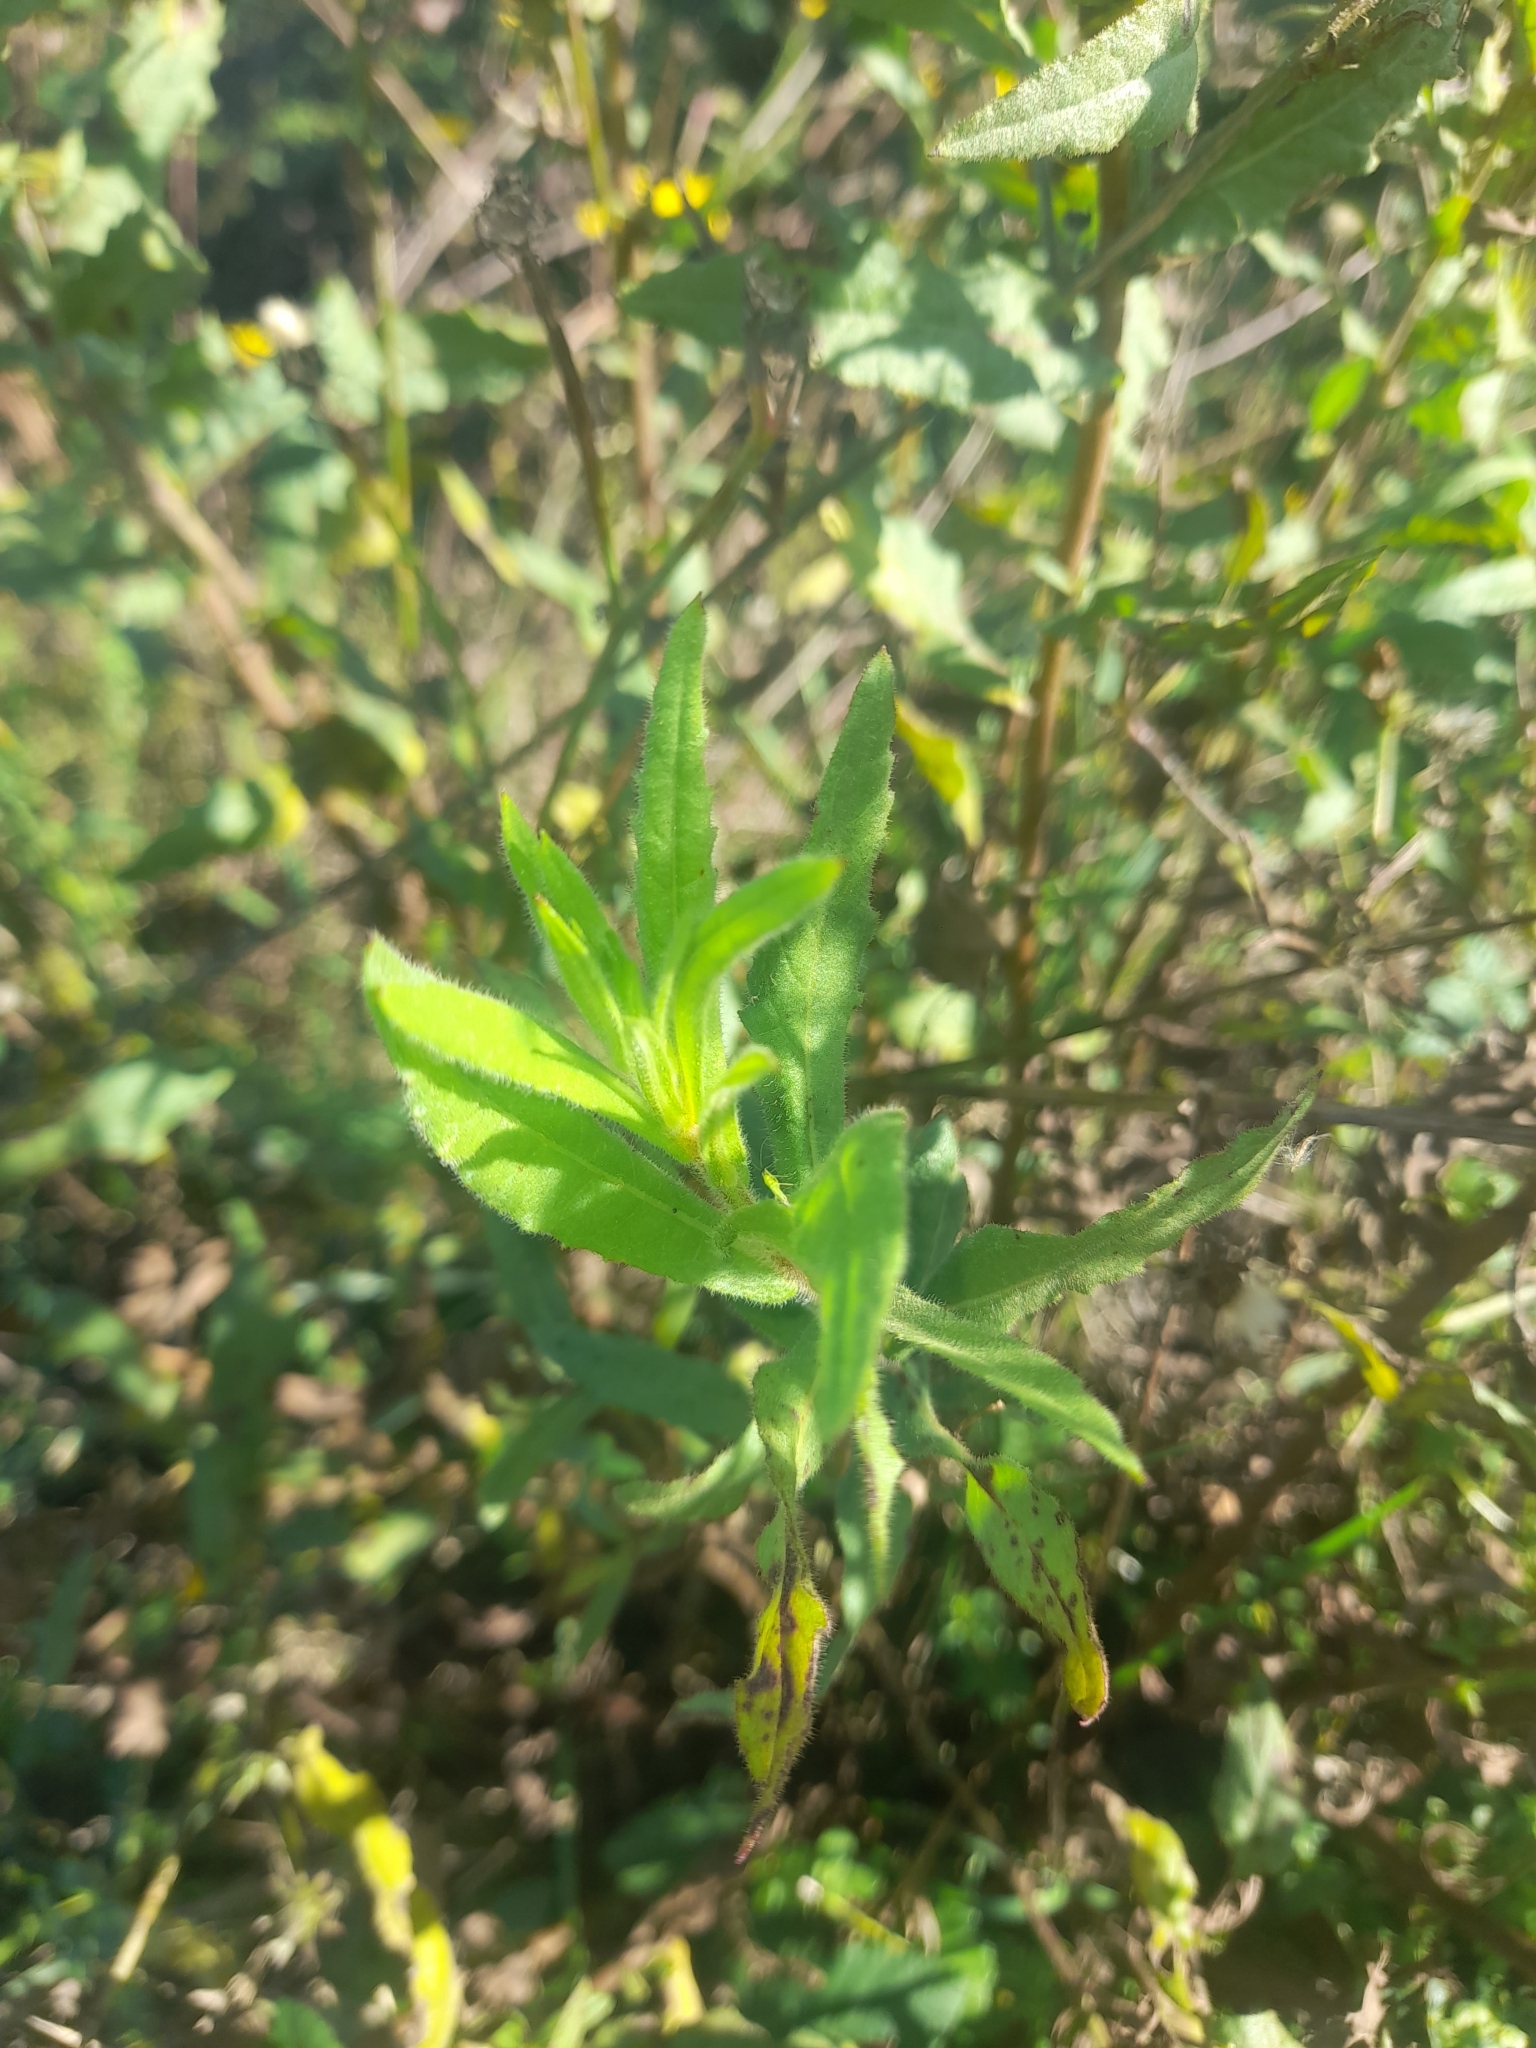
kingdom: Plantae
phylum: Tracheophyta
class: Magnoliopsida
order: Asterales
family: Asteraceae
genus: Dittrichia
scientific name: Dittrichia viscosa
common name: Woody fleabane
